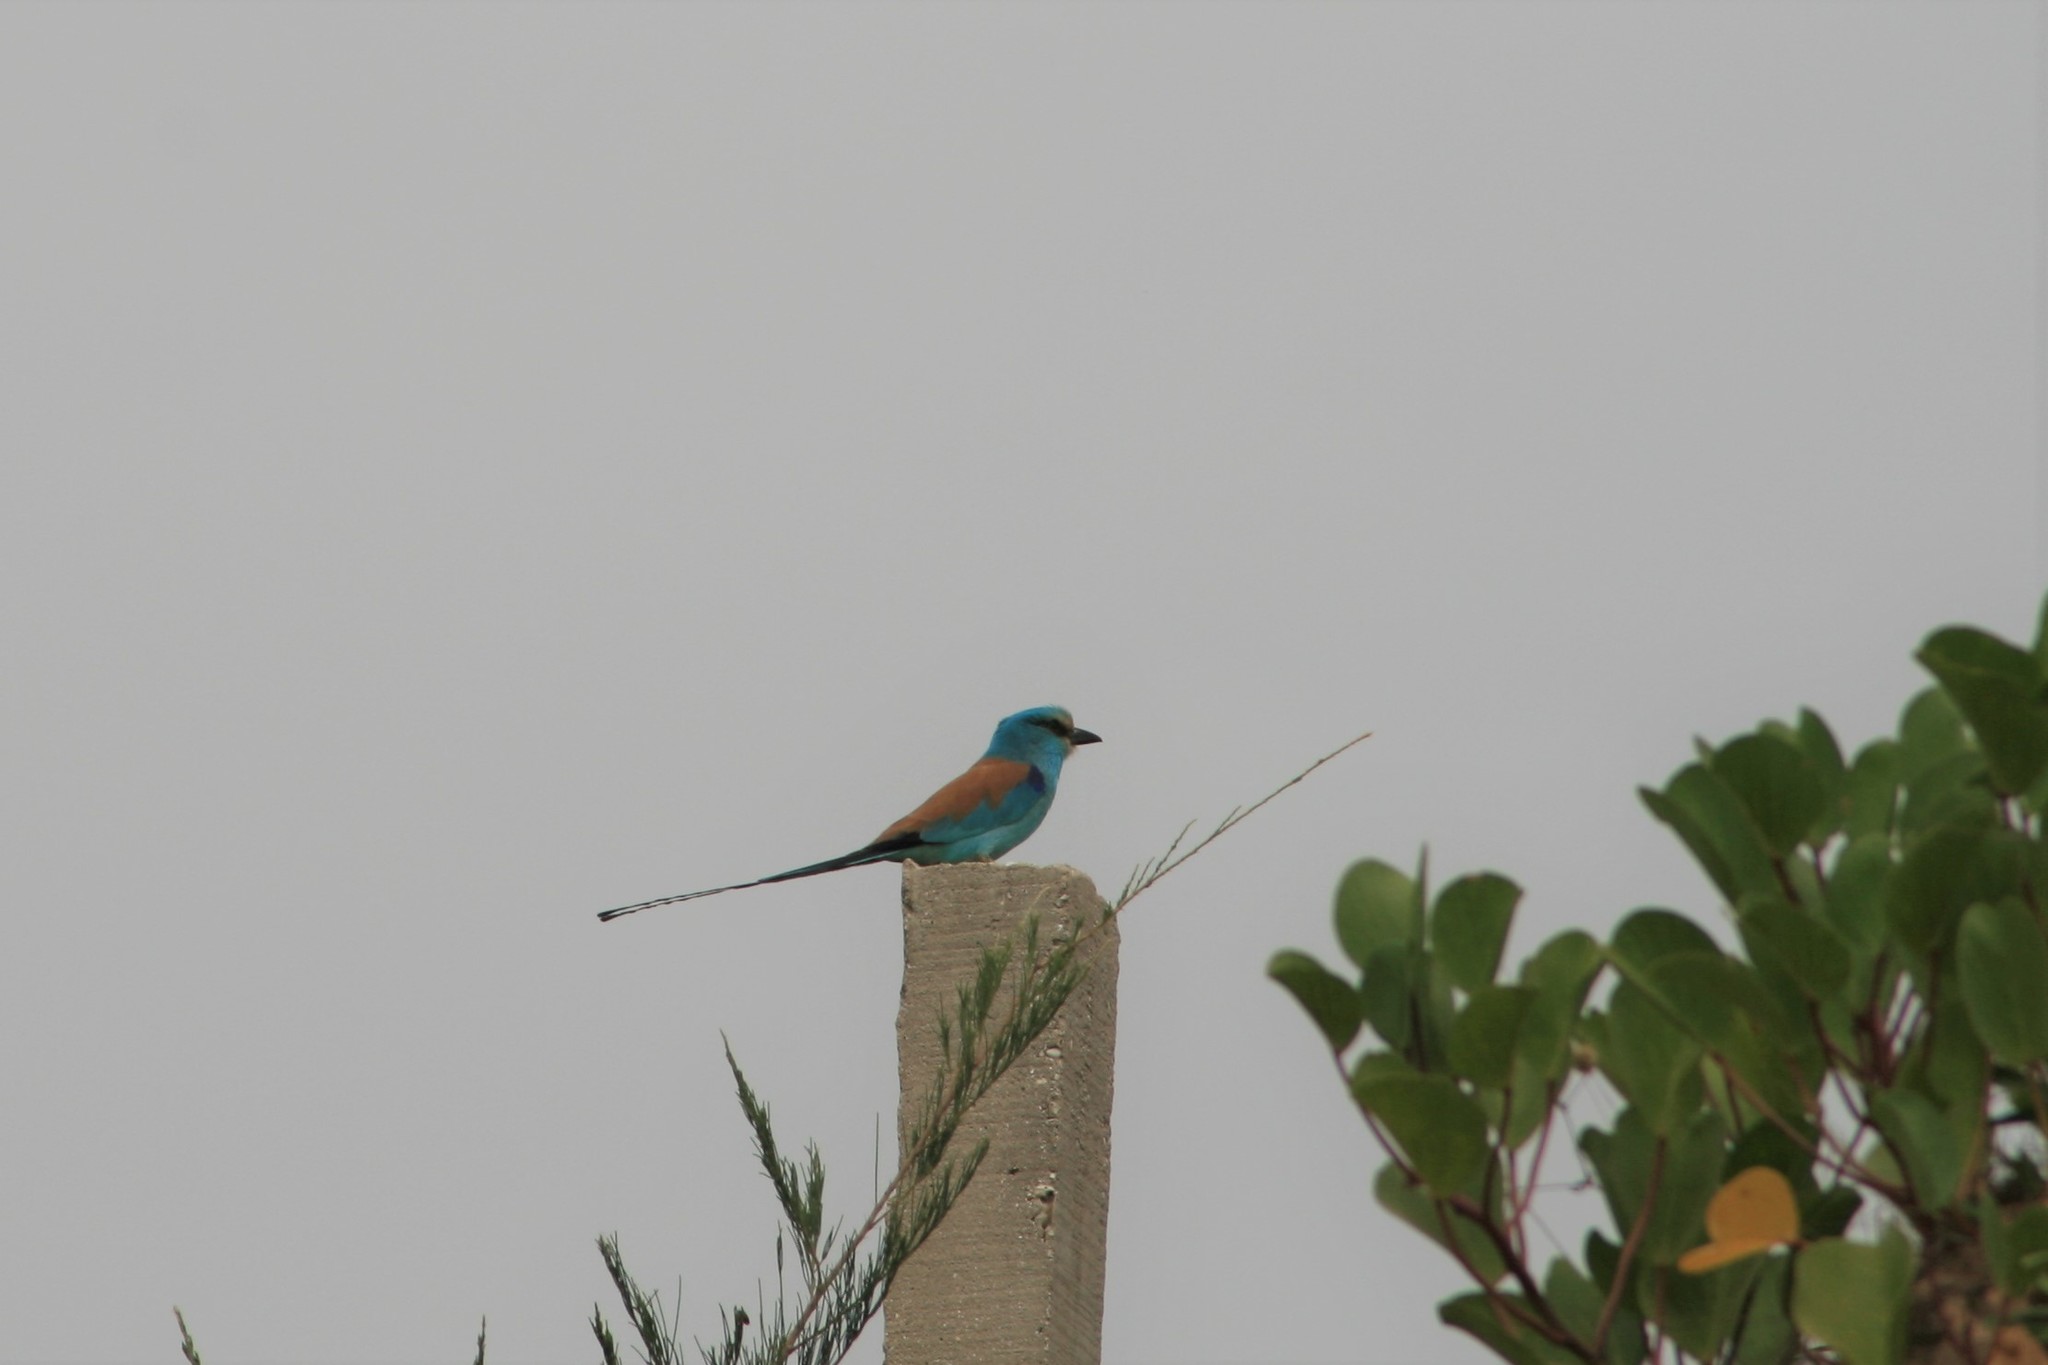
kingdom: Animalia
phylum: Chordata
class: Aves
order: Coraciiformes
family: Coraciidae
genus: Coracias
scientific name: Coracias abyssinicus
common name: Abyssinian roller
